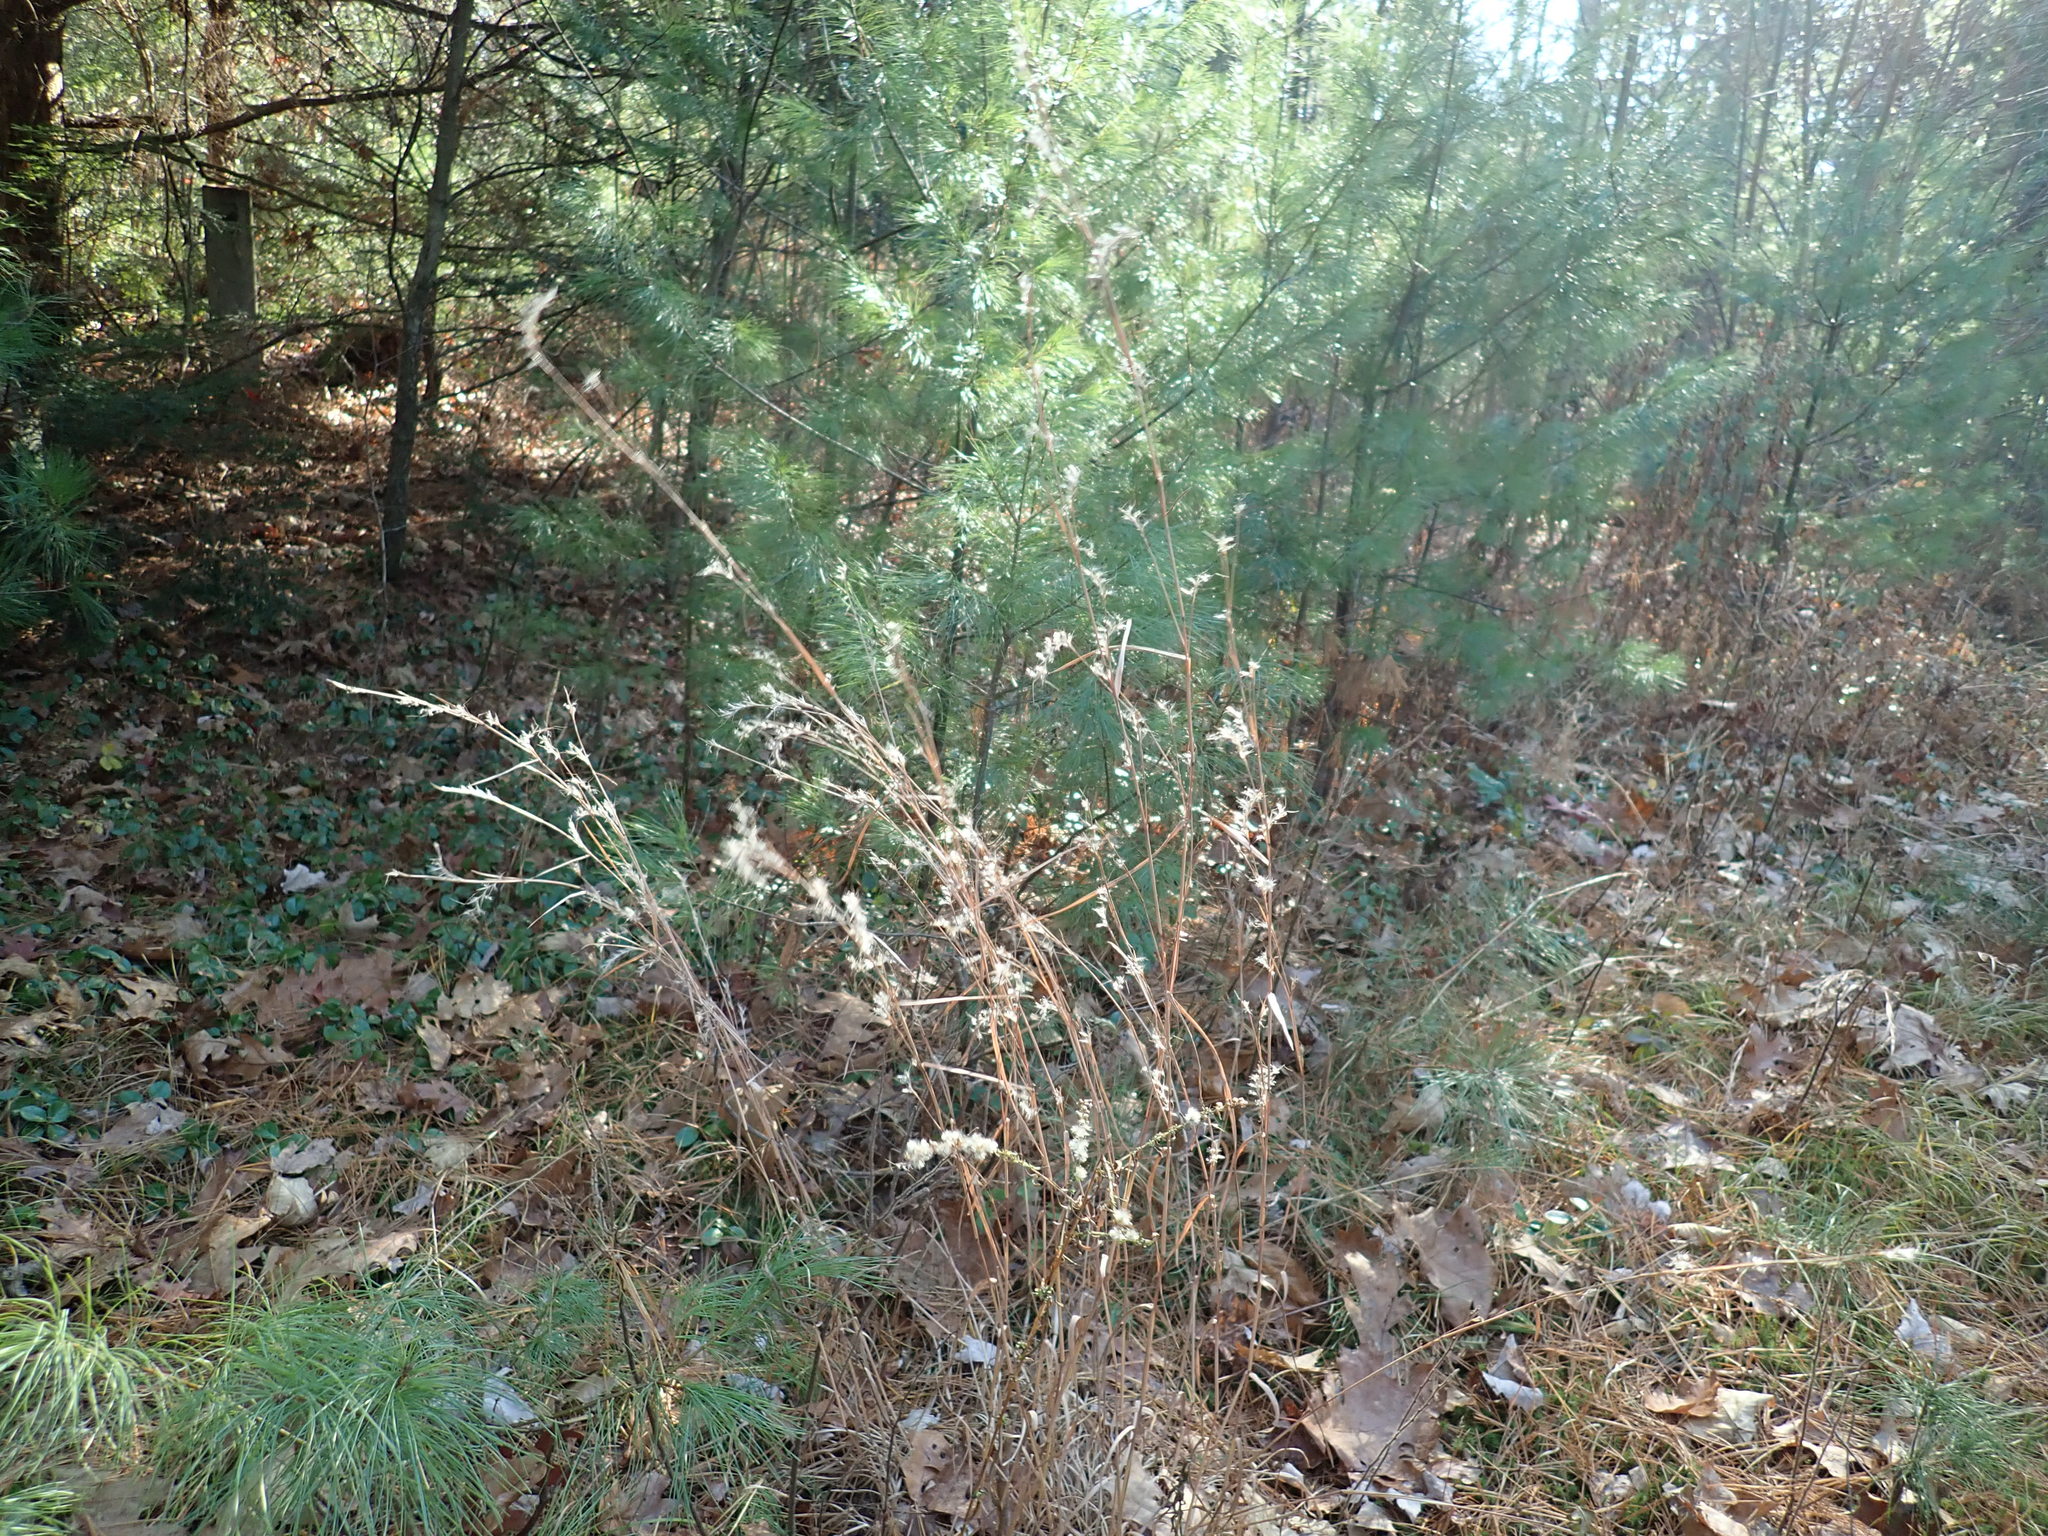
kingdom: Plantae
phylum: Tracheophyta
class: Liliopsida
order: Poales
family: Poaceae
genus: Schizachyrium
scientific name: Schizachyrium scoparium
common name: Little bluestem
